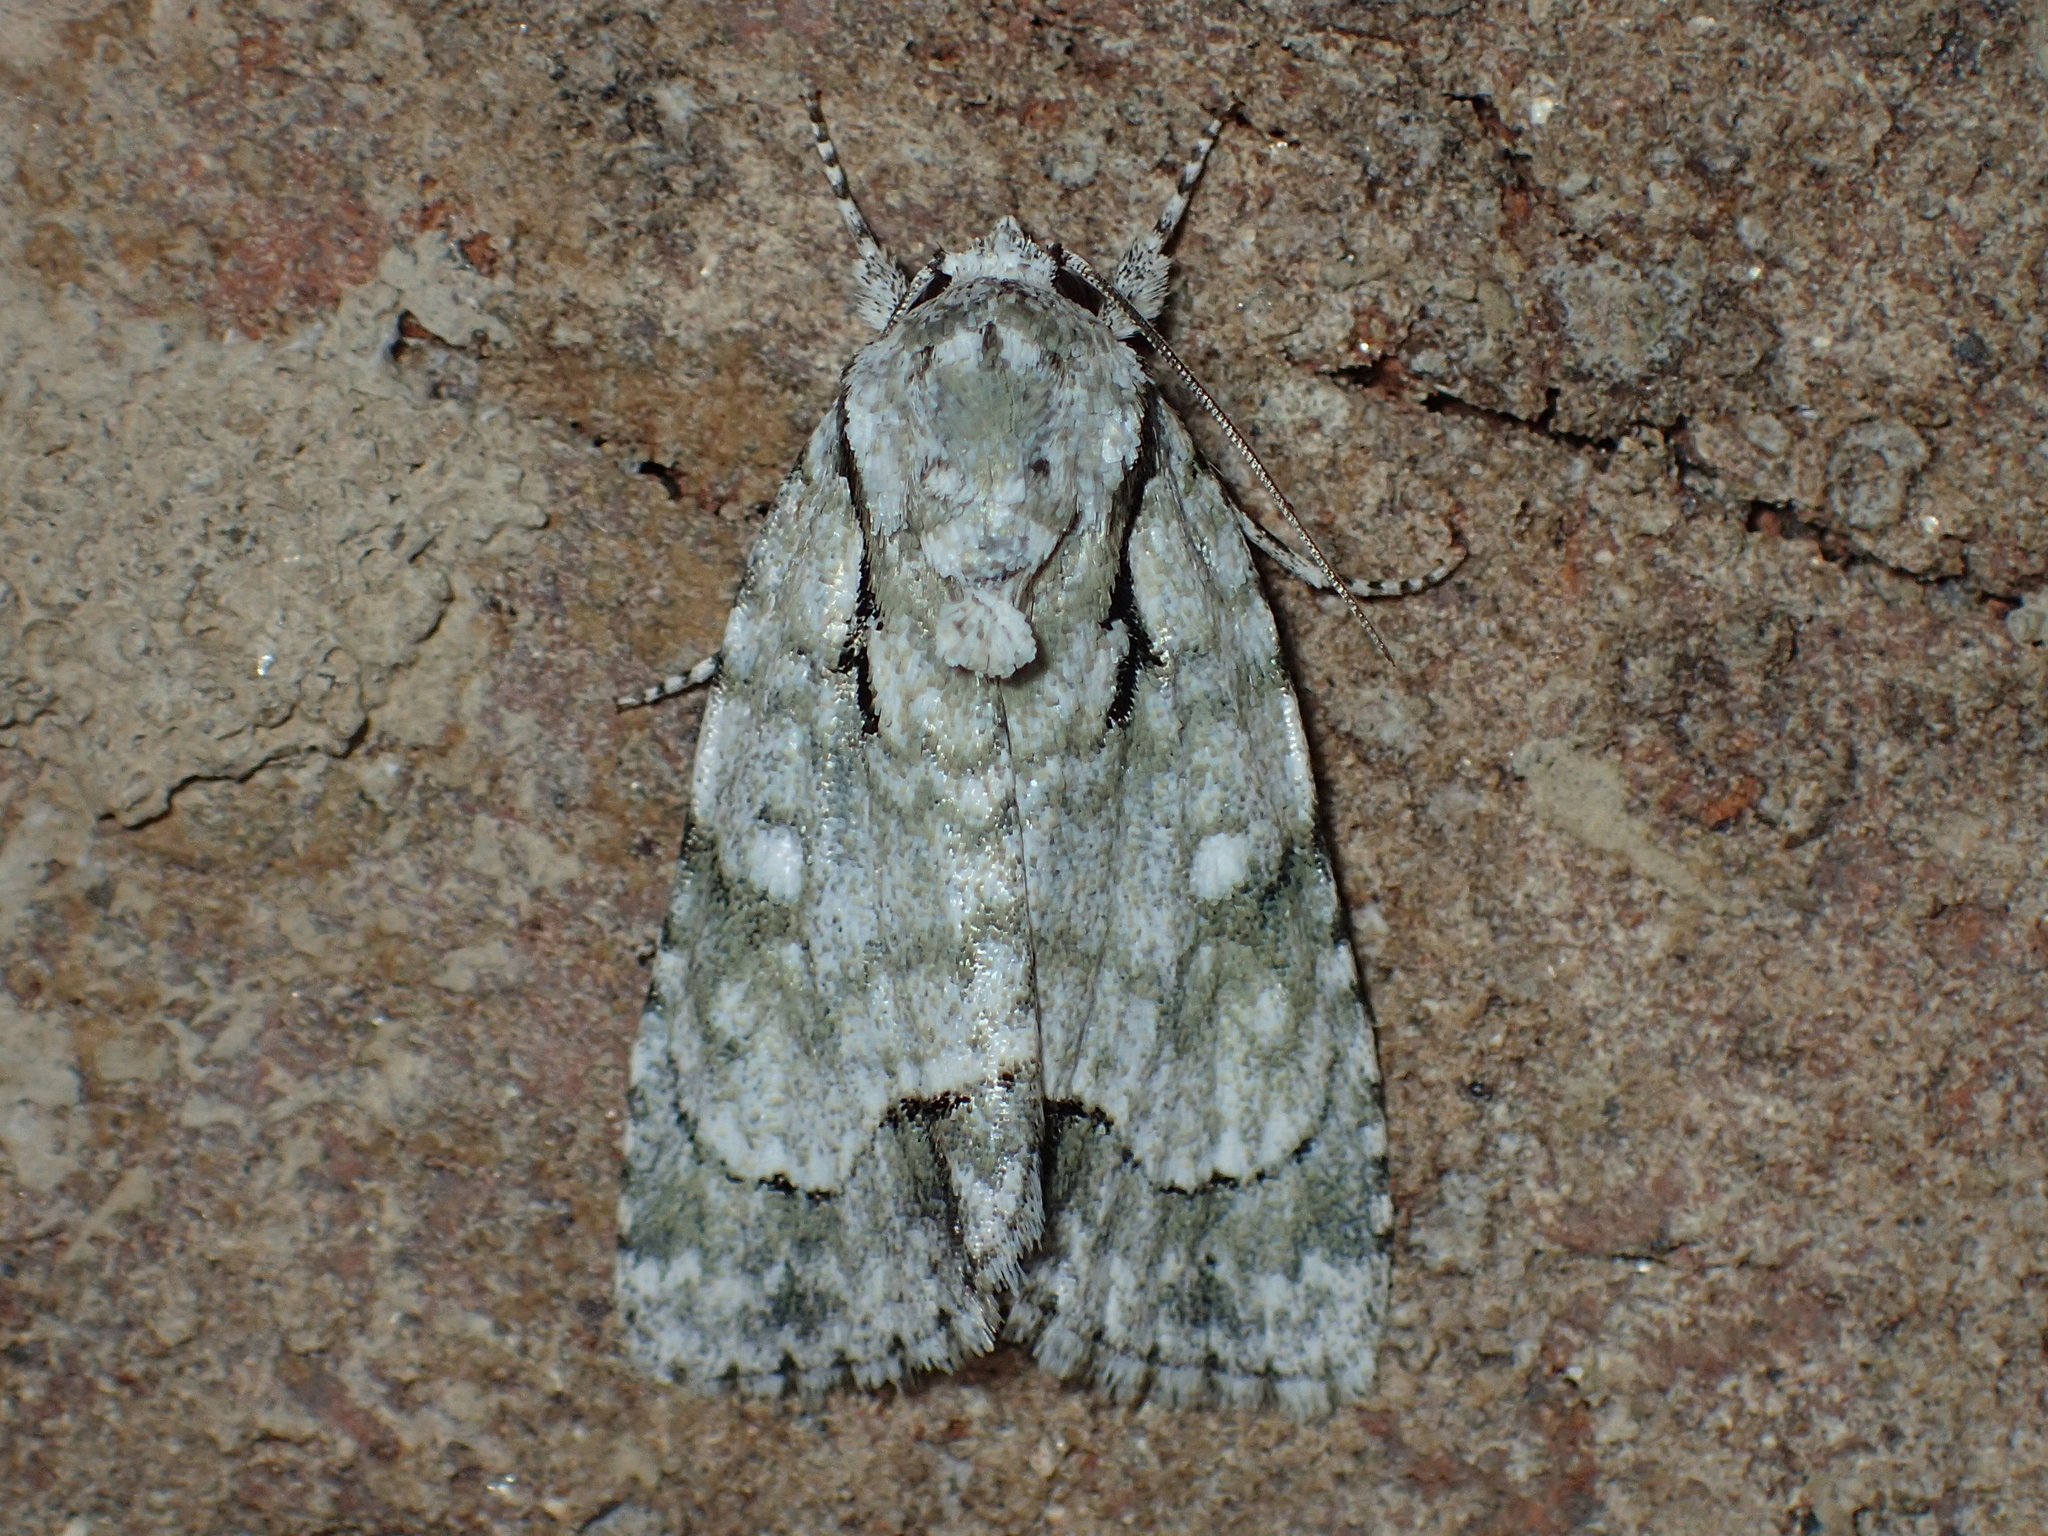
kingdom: Animalia
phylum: Arthropoda
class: Insecta
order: Lepidoptera
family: Noctuidae
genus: Acronicta
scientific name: Acronicta vinnula
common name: Delightful dagger
